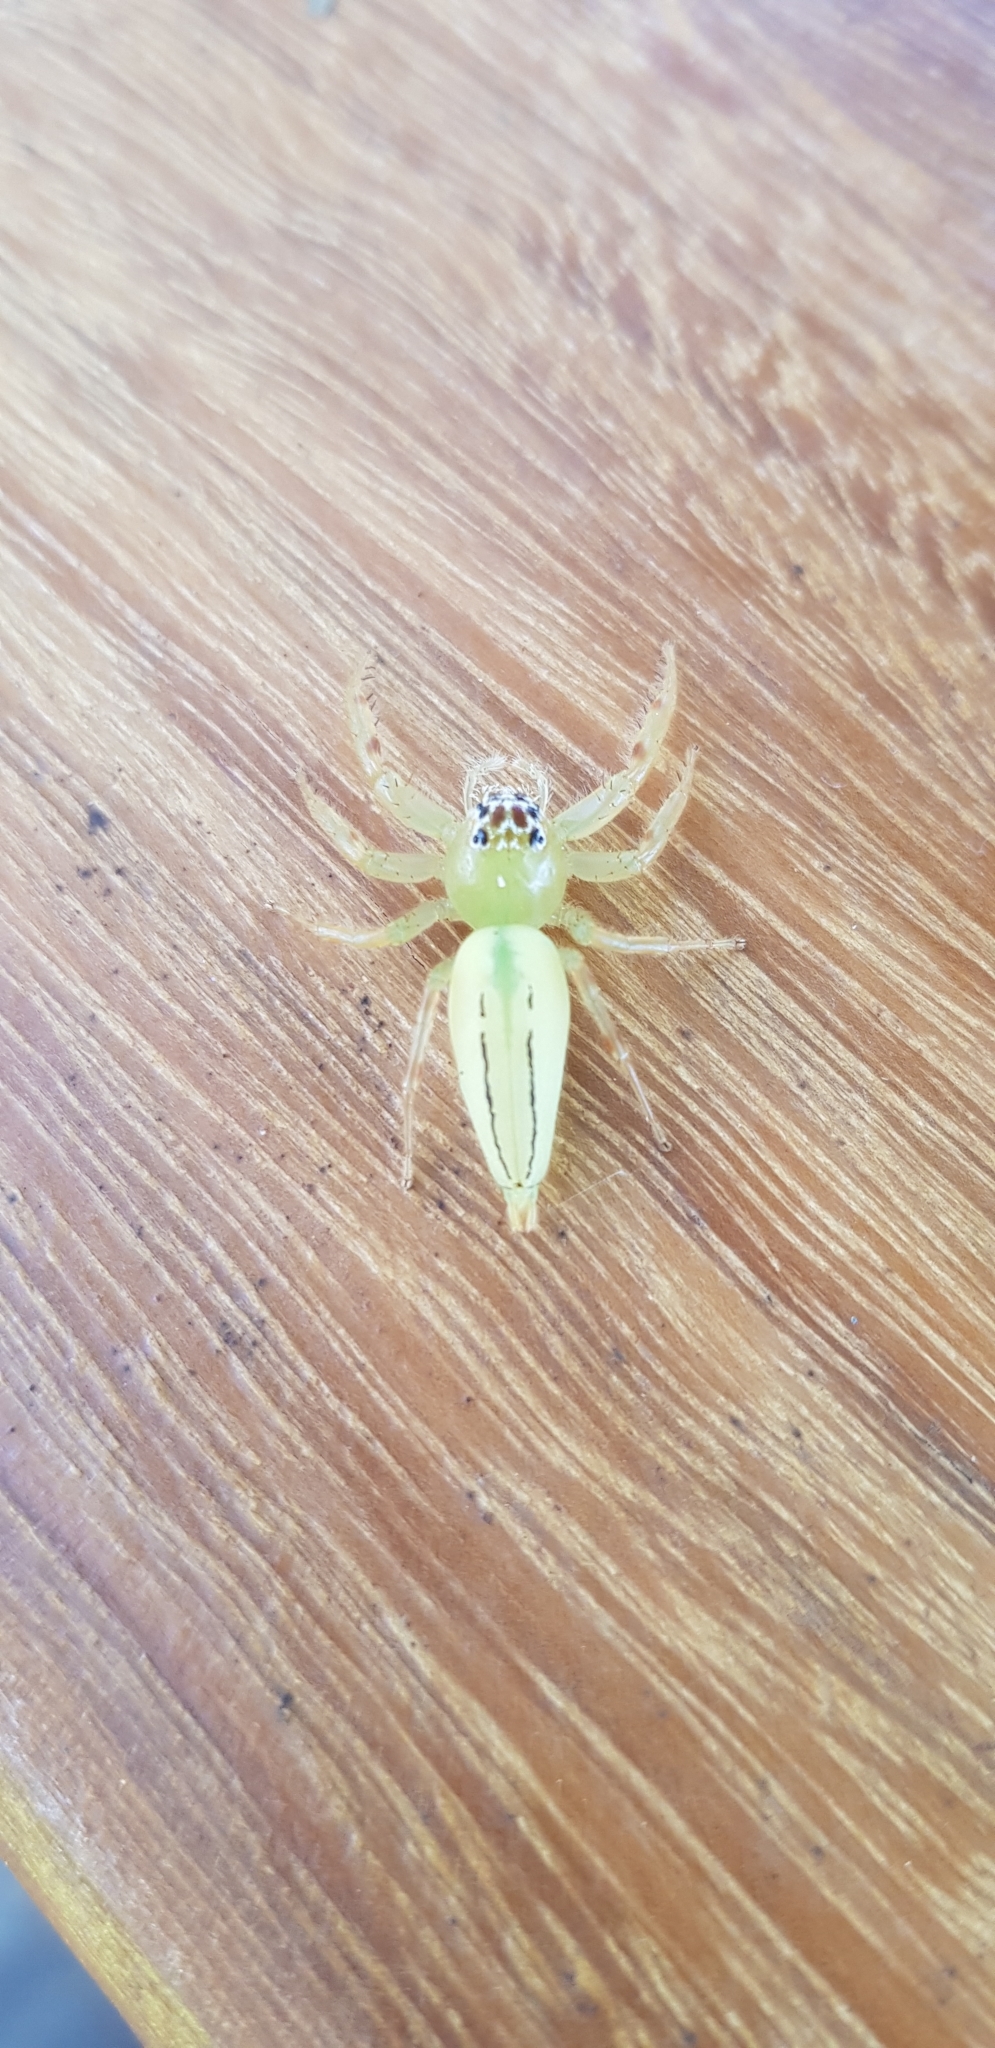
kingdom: Animalia
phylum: Arthropoda
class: Arachnida
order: Araneae
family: Salticidae
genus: Mopsus
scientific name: Mopsus mormon
